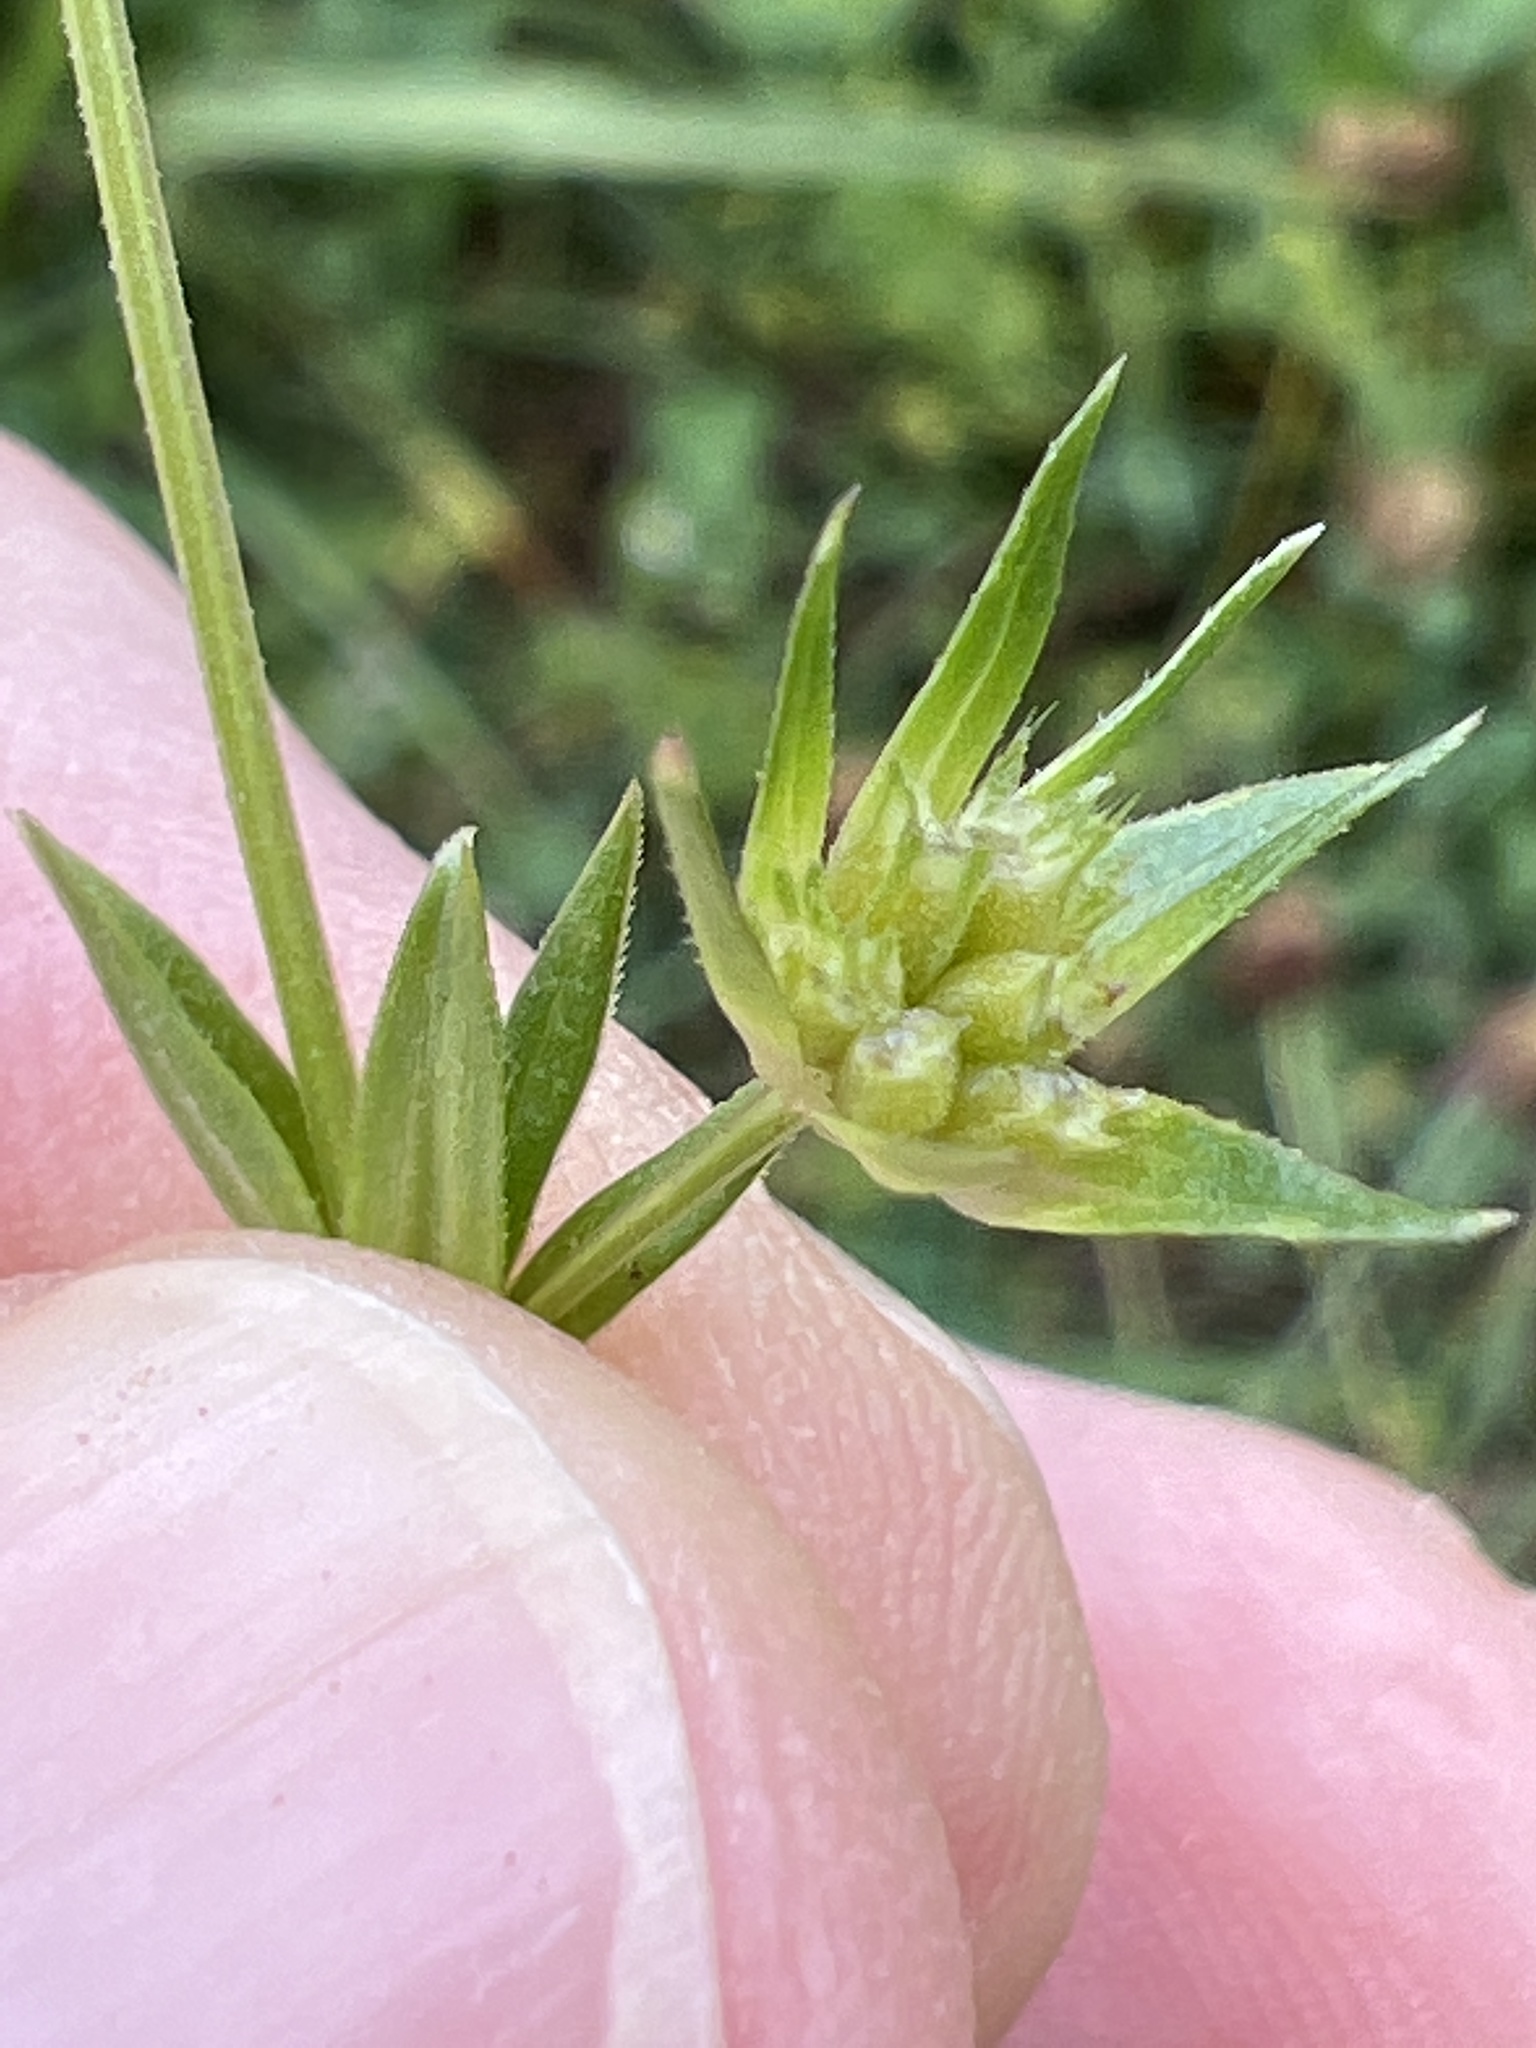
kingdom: Plantae
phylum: Tracheophyta
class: Magnoliopsida
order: Gentianales
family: Rubiaceae
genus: Sherardia
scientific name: Sherardia arvensis
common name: Field madder
